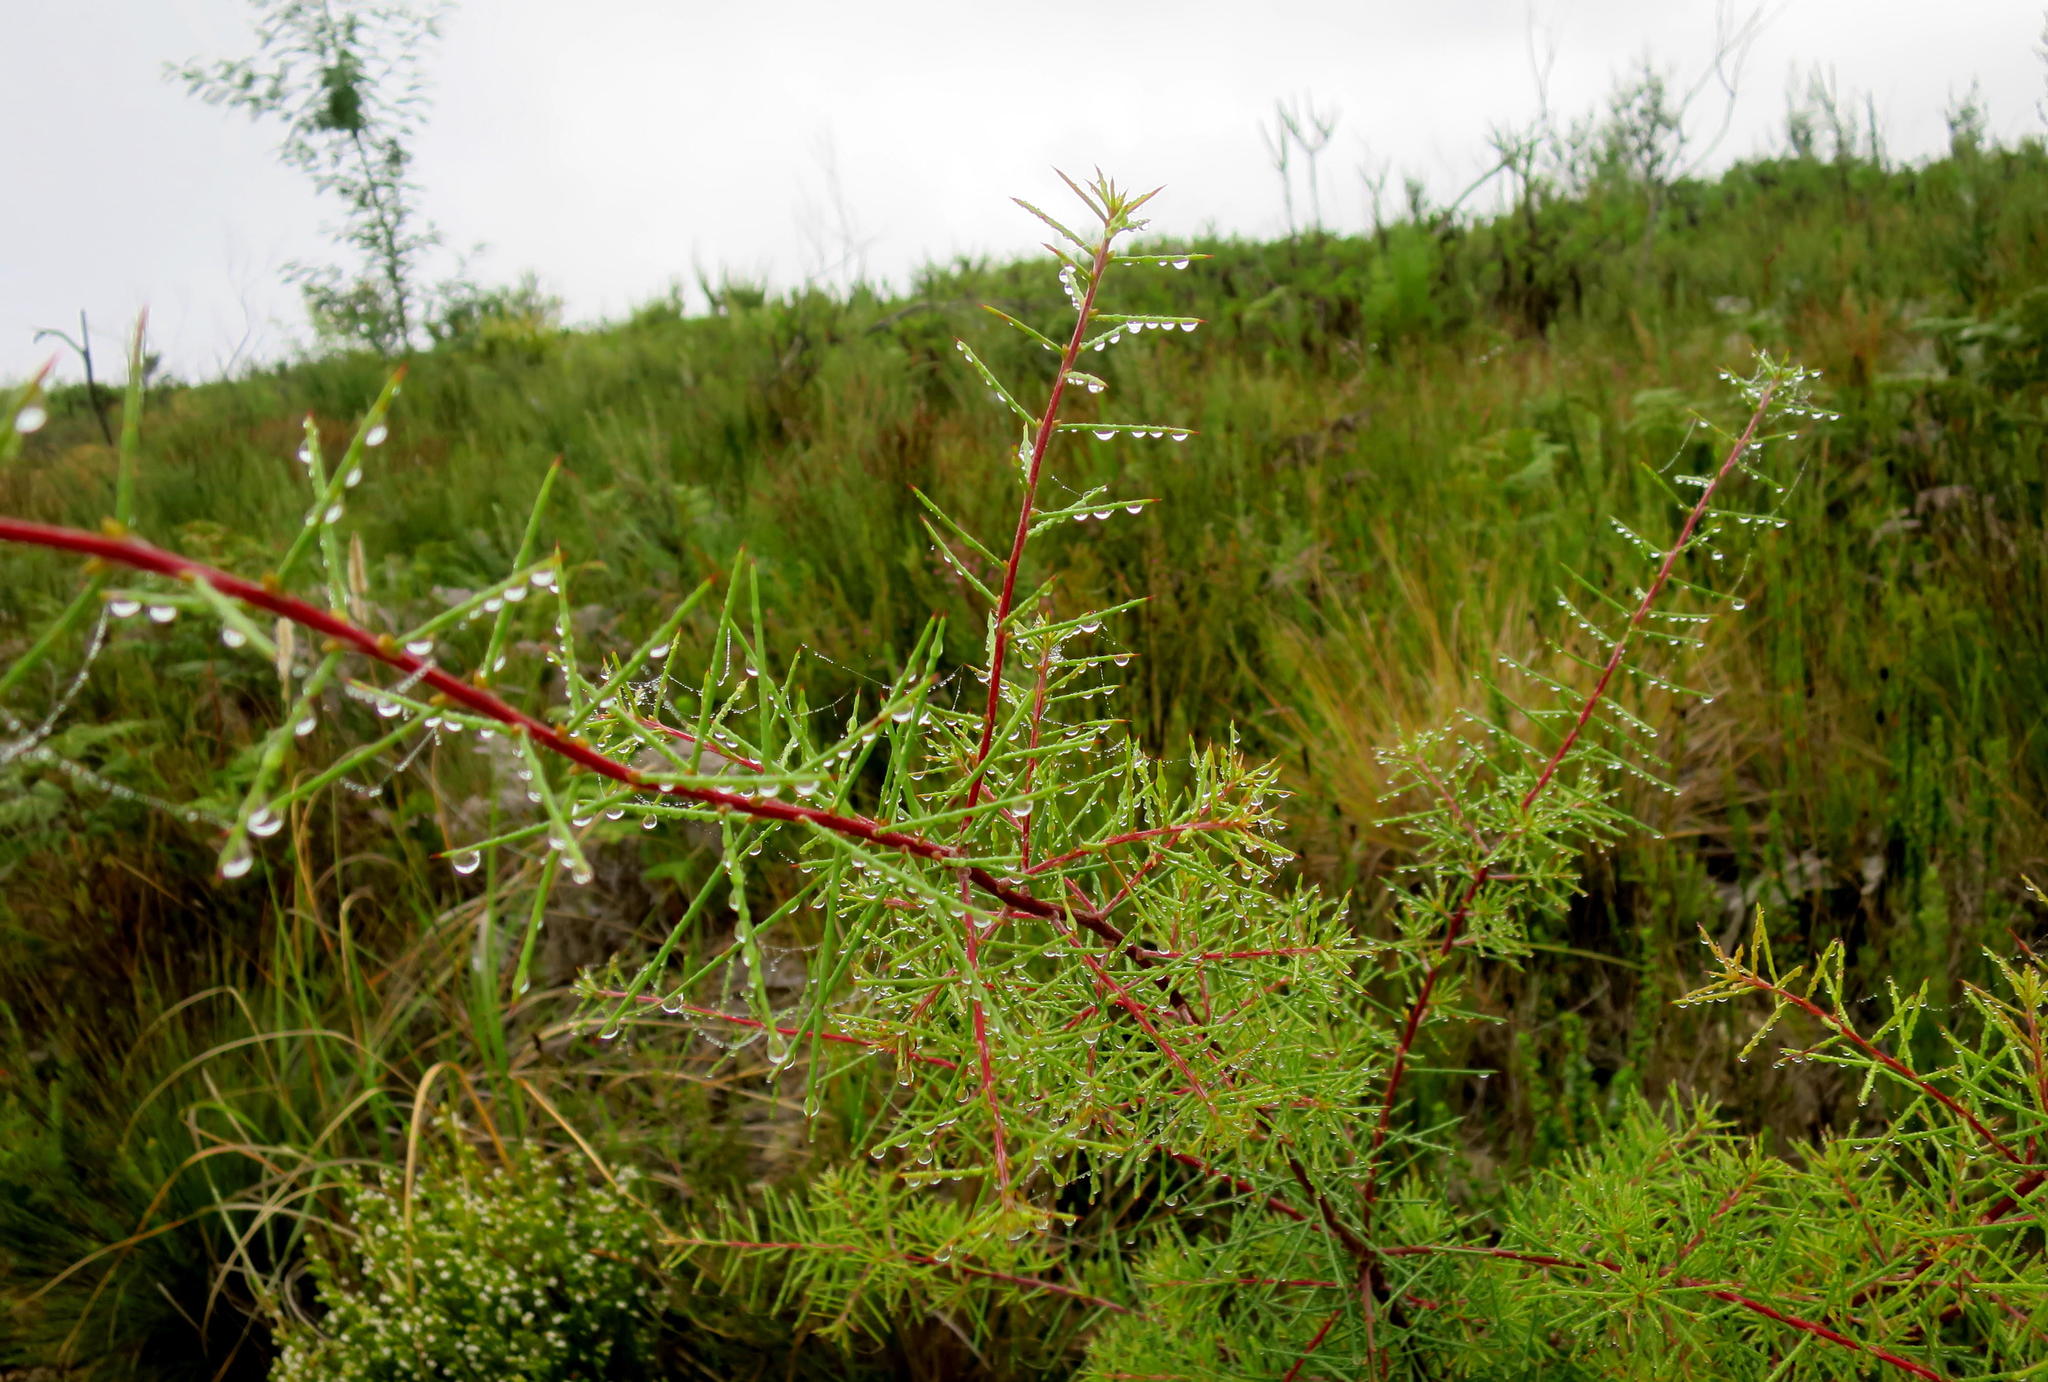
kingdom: Plantae
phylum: Tracheophyta
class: Magnoliopsida
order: Proteales
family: Proteaceae
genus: Hakea
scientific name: Hakea sericea
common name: Needle bush
